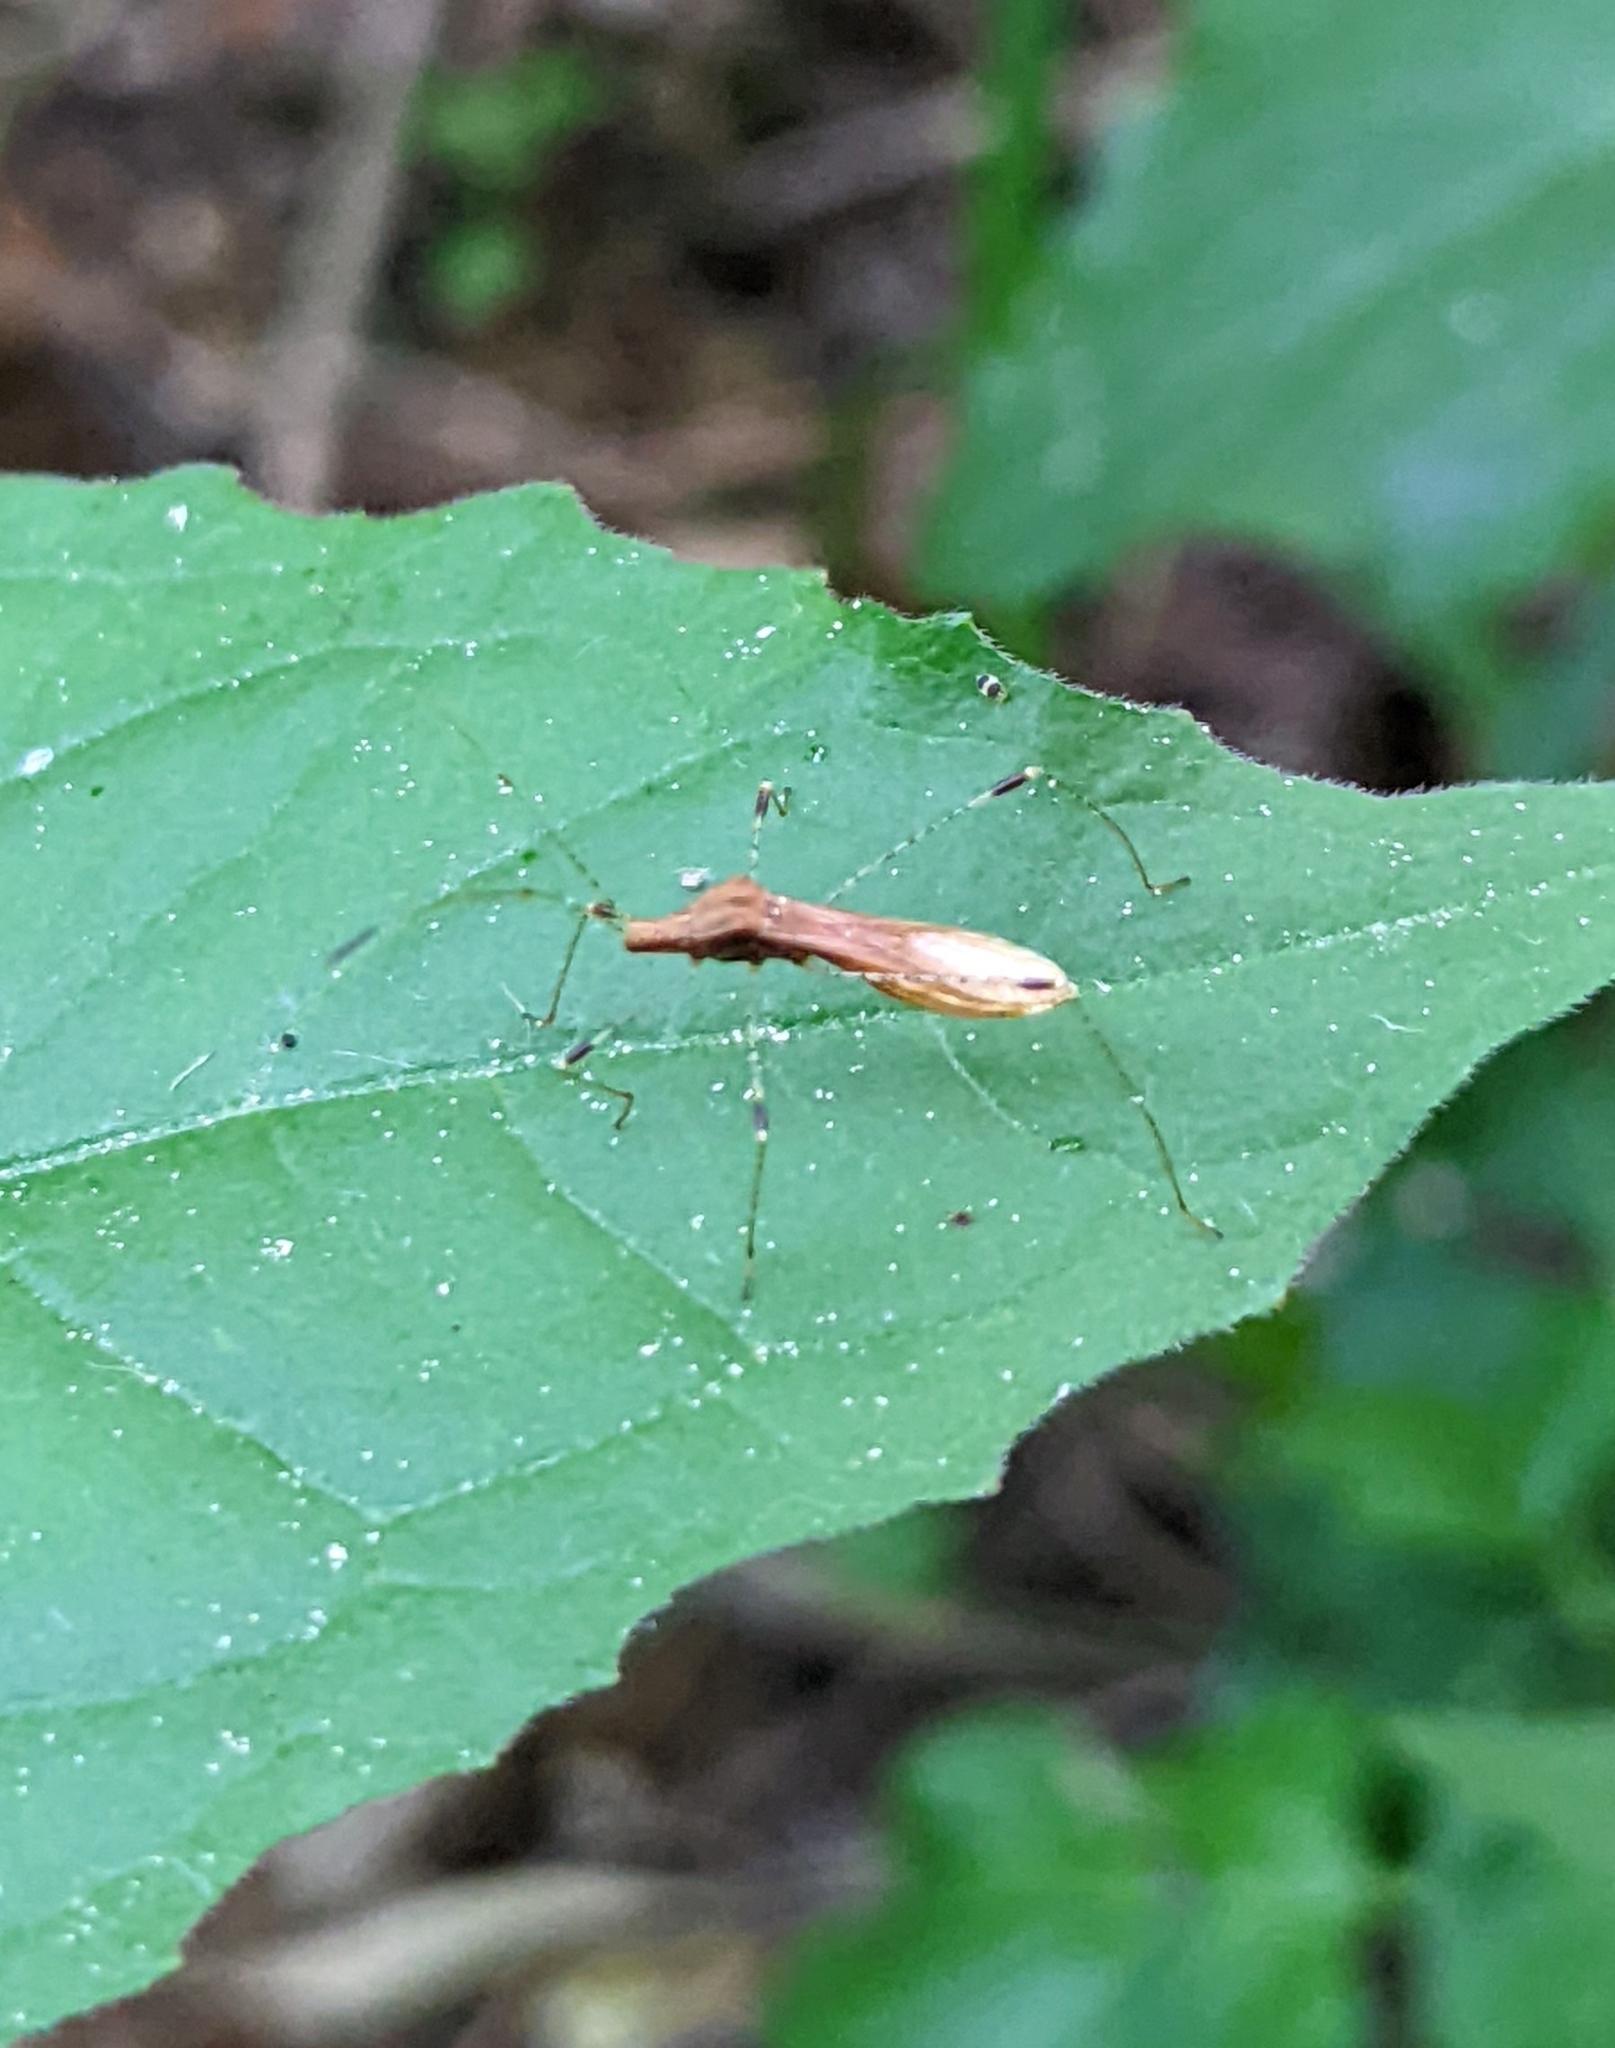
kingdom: Animalia
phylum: Arthropoda
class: Insecta
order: Hemiptera
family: Berytidae
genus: Metatropis
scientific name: Metatropis rufescens
